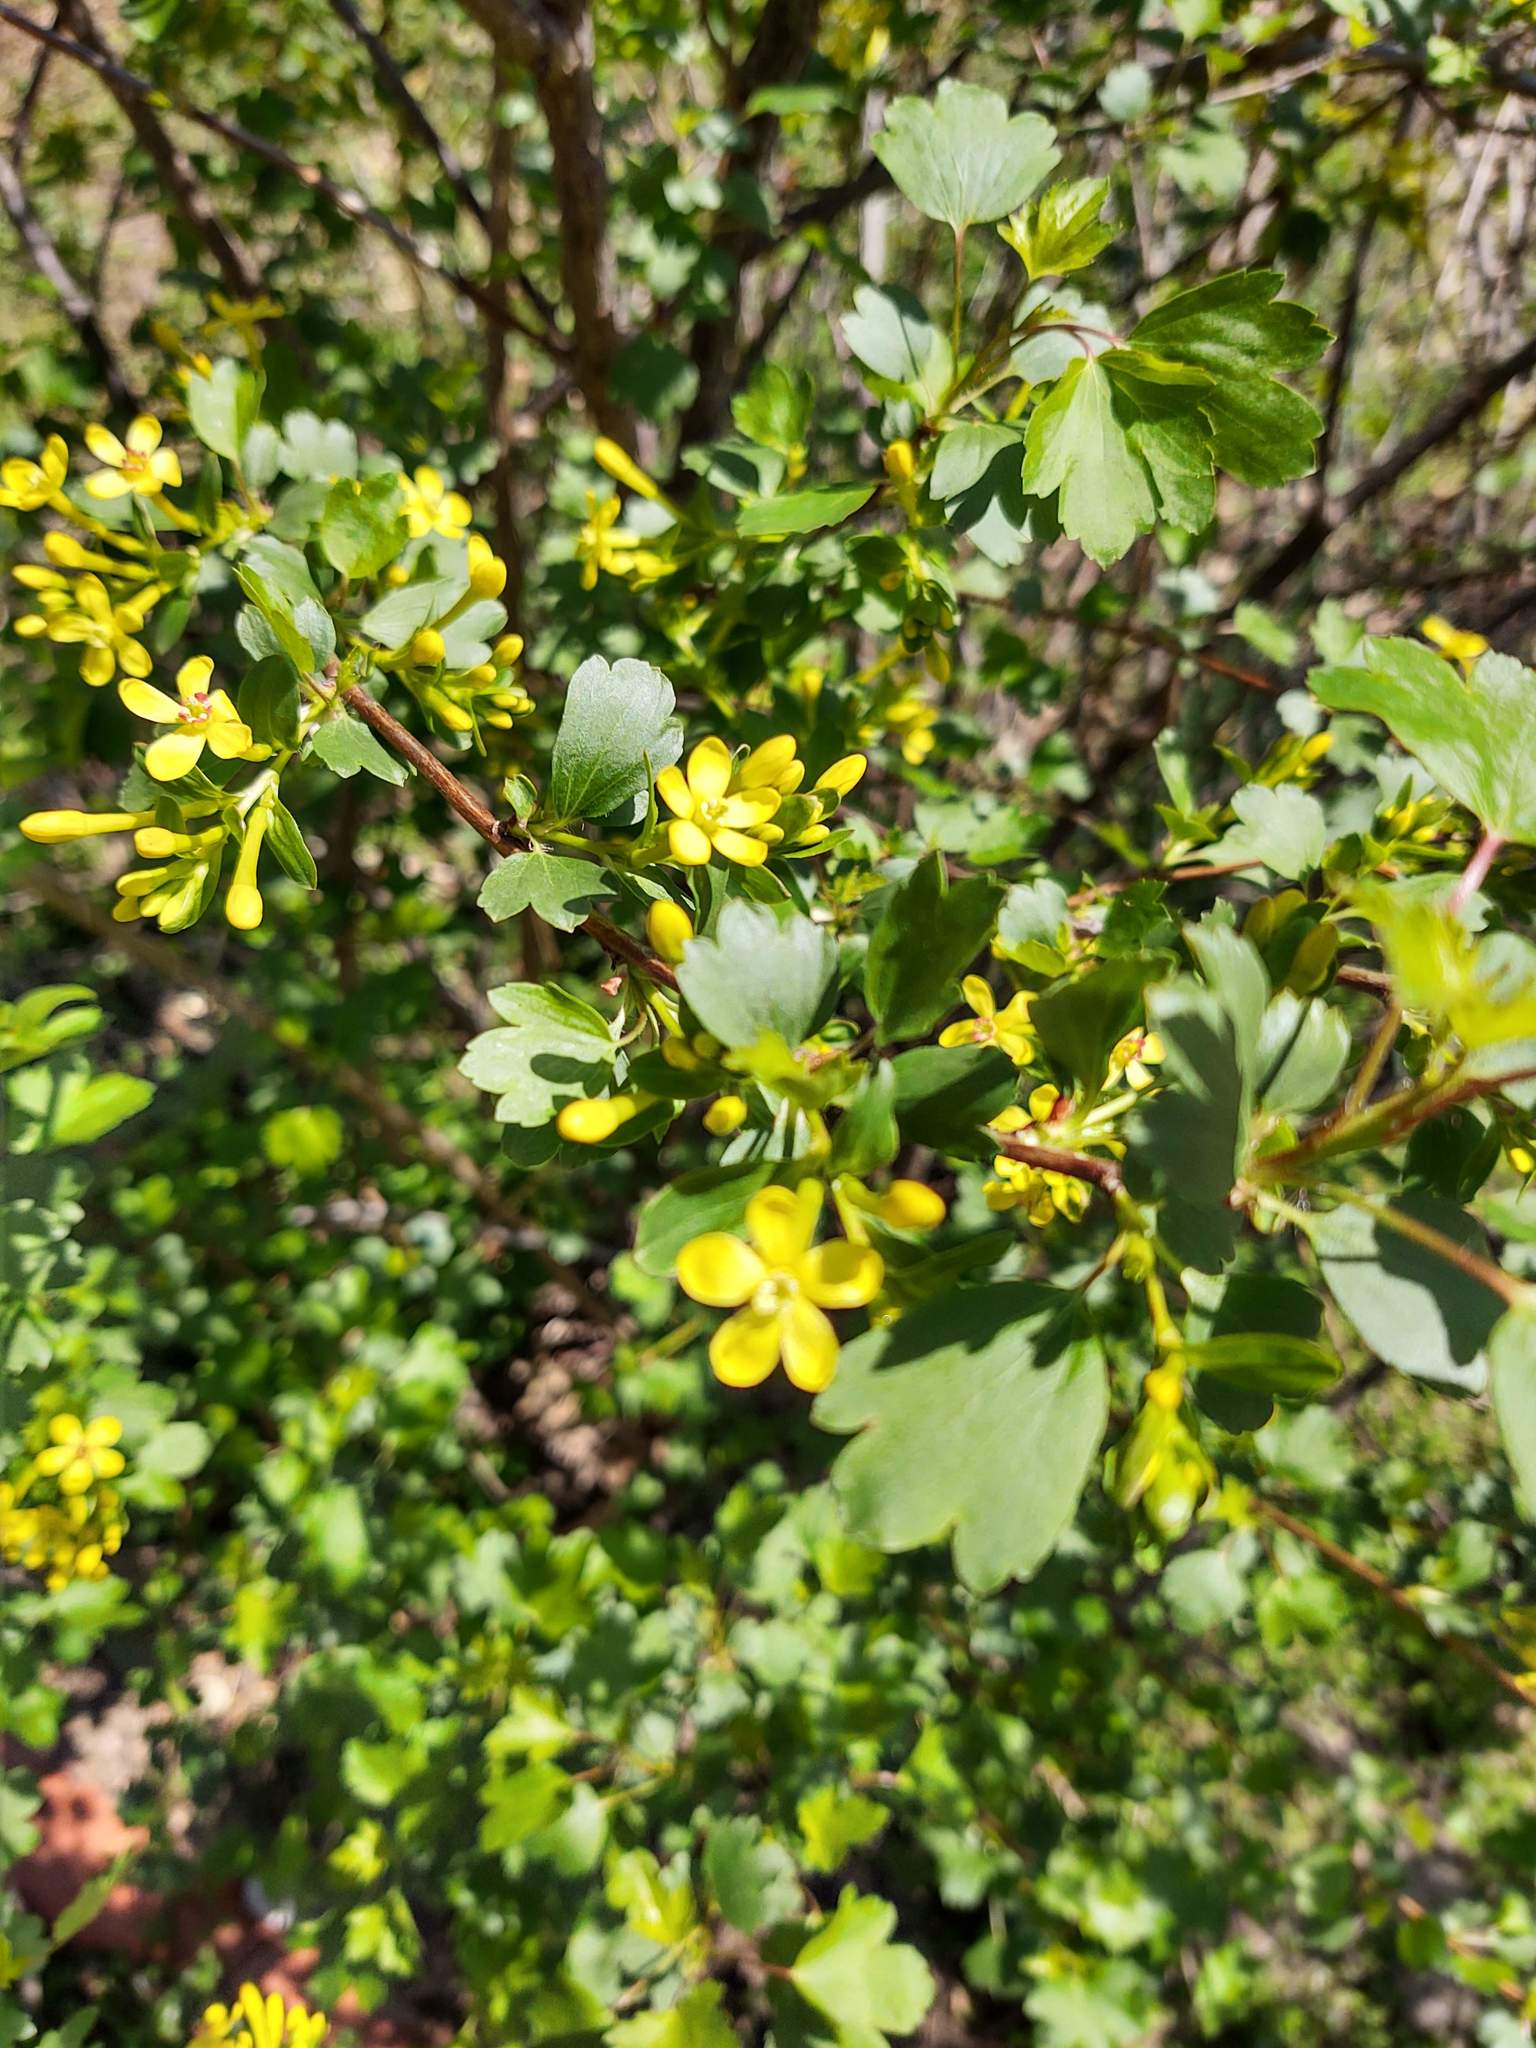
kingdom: Plantae
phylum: Tracheophyta
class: Magnoliopsida
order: Saxifragales
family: Grossulariaceae
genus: Ribes
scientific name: Ribes aureum
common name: Golden currant
